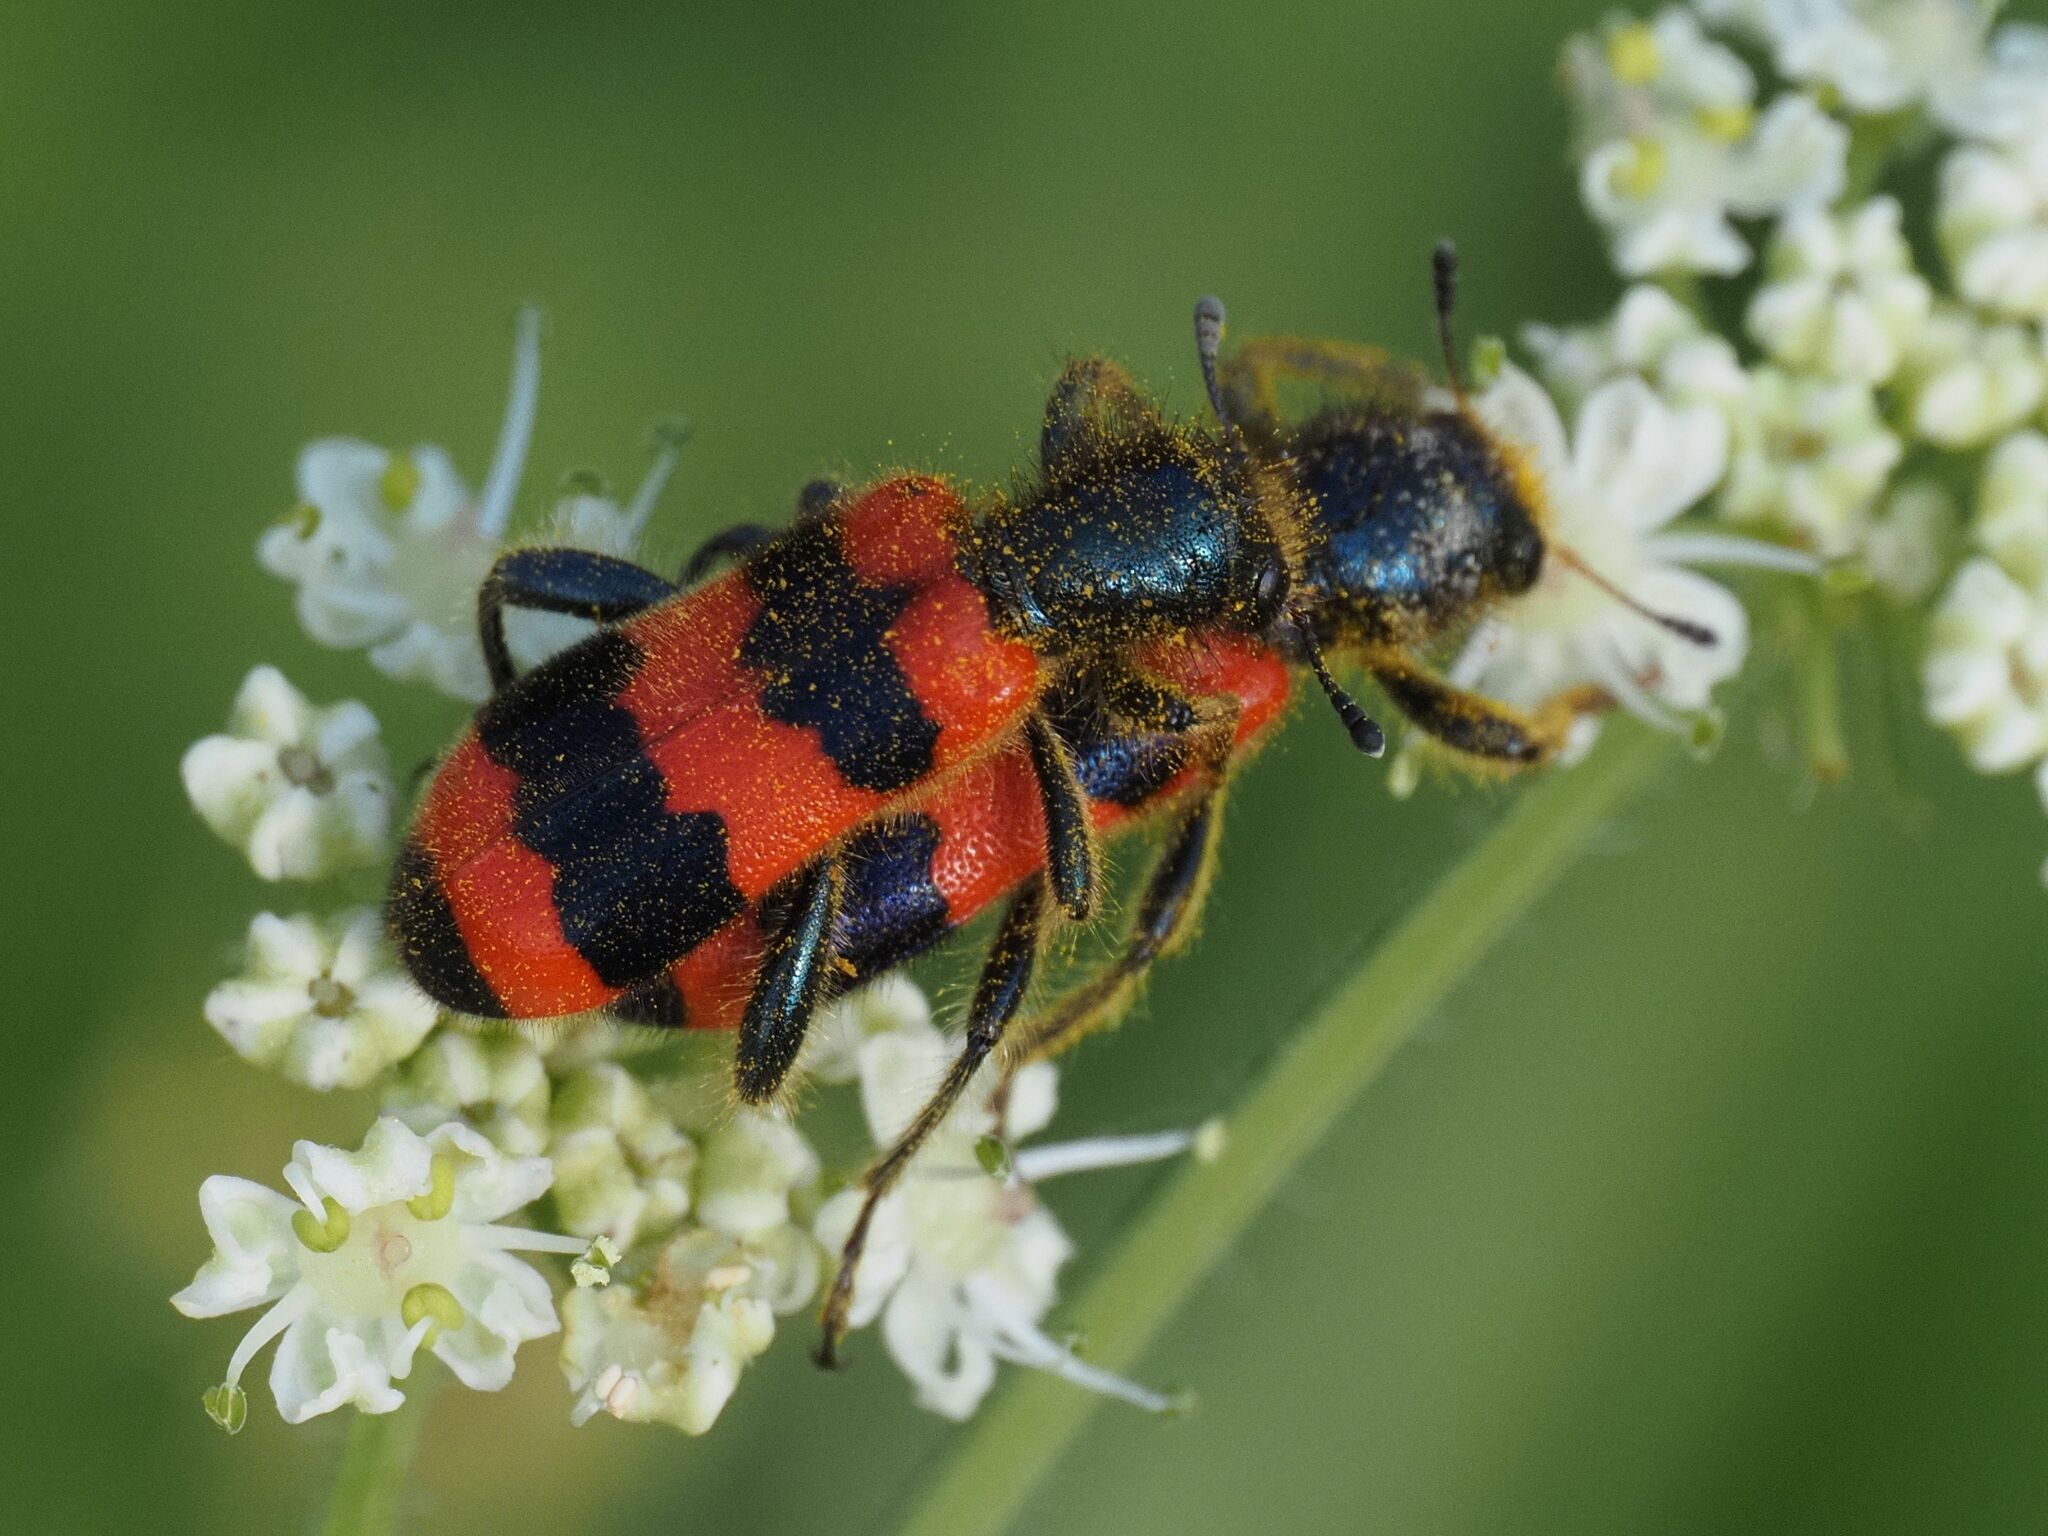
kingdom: Animalia
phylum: Arthropoda
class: Insecta
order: Coleoptera
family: Cleridae
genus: Trichodes
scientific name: Trichodes apiarius
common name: Bee-eating beetle
